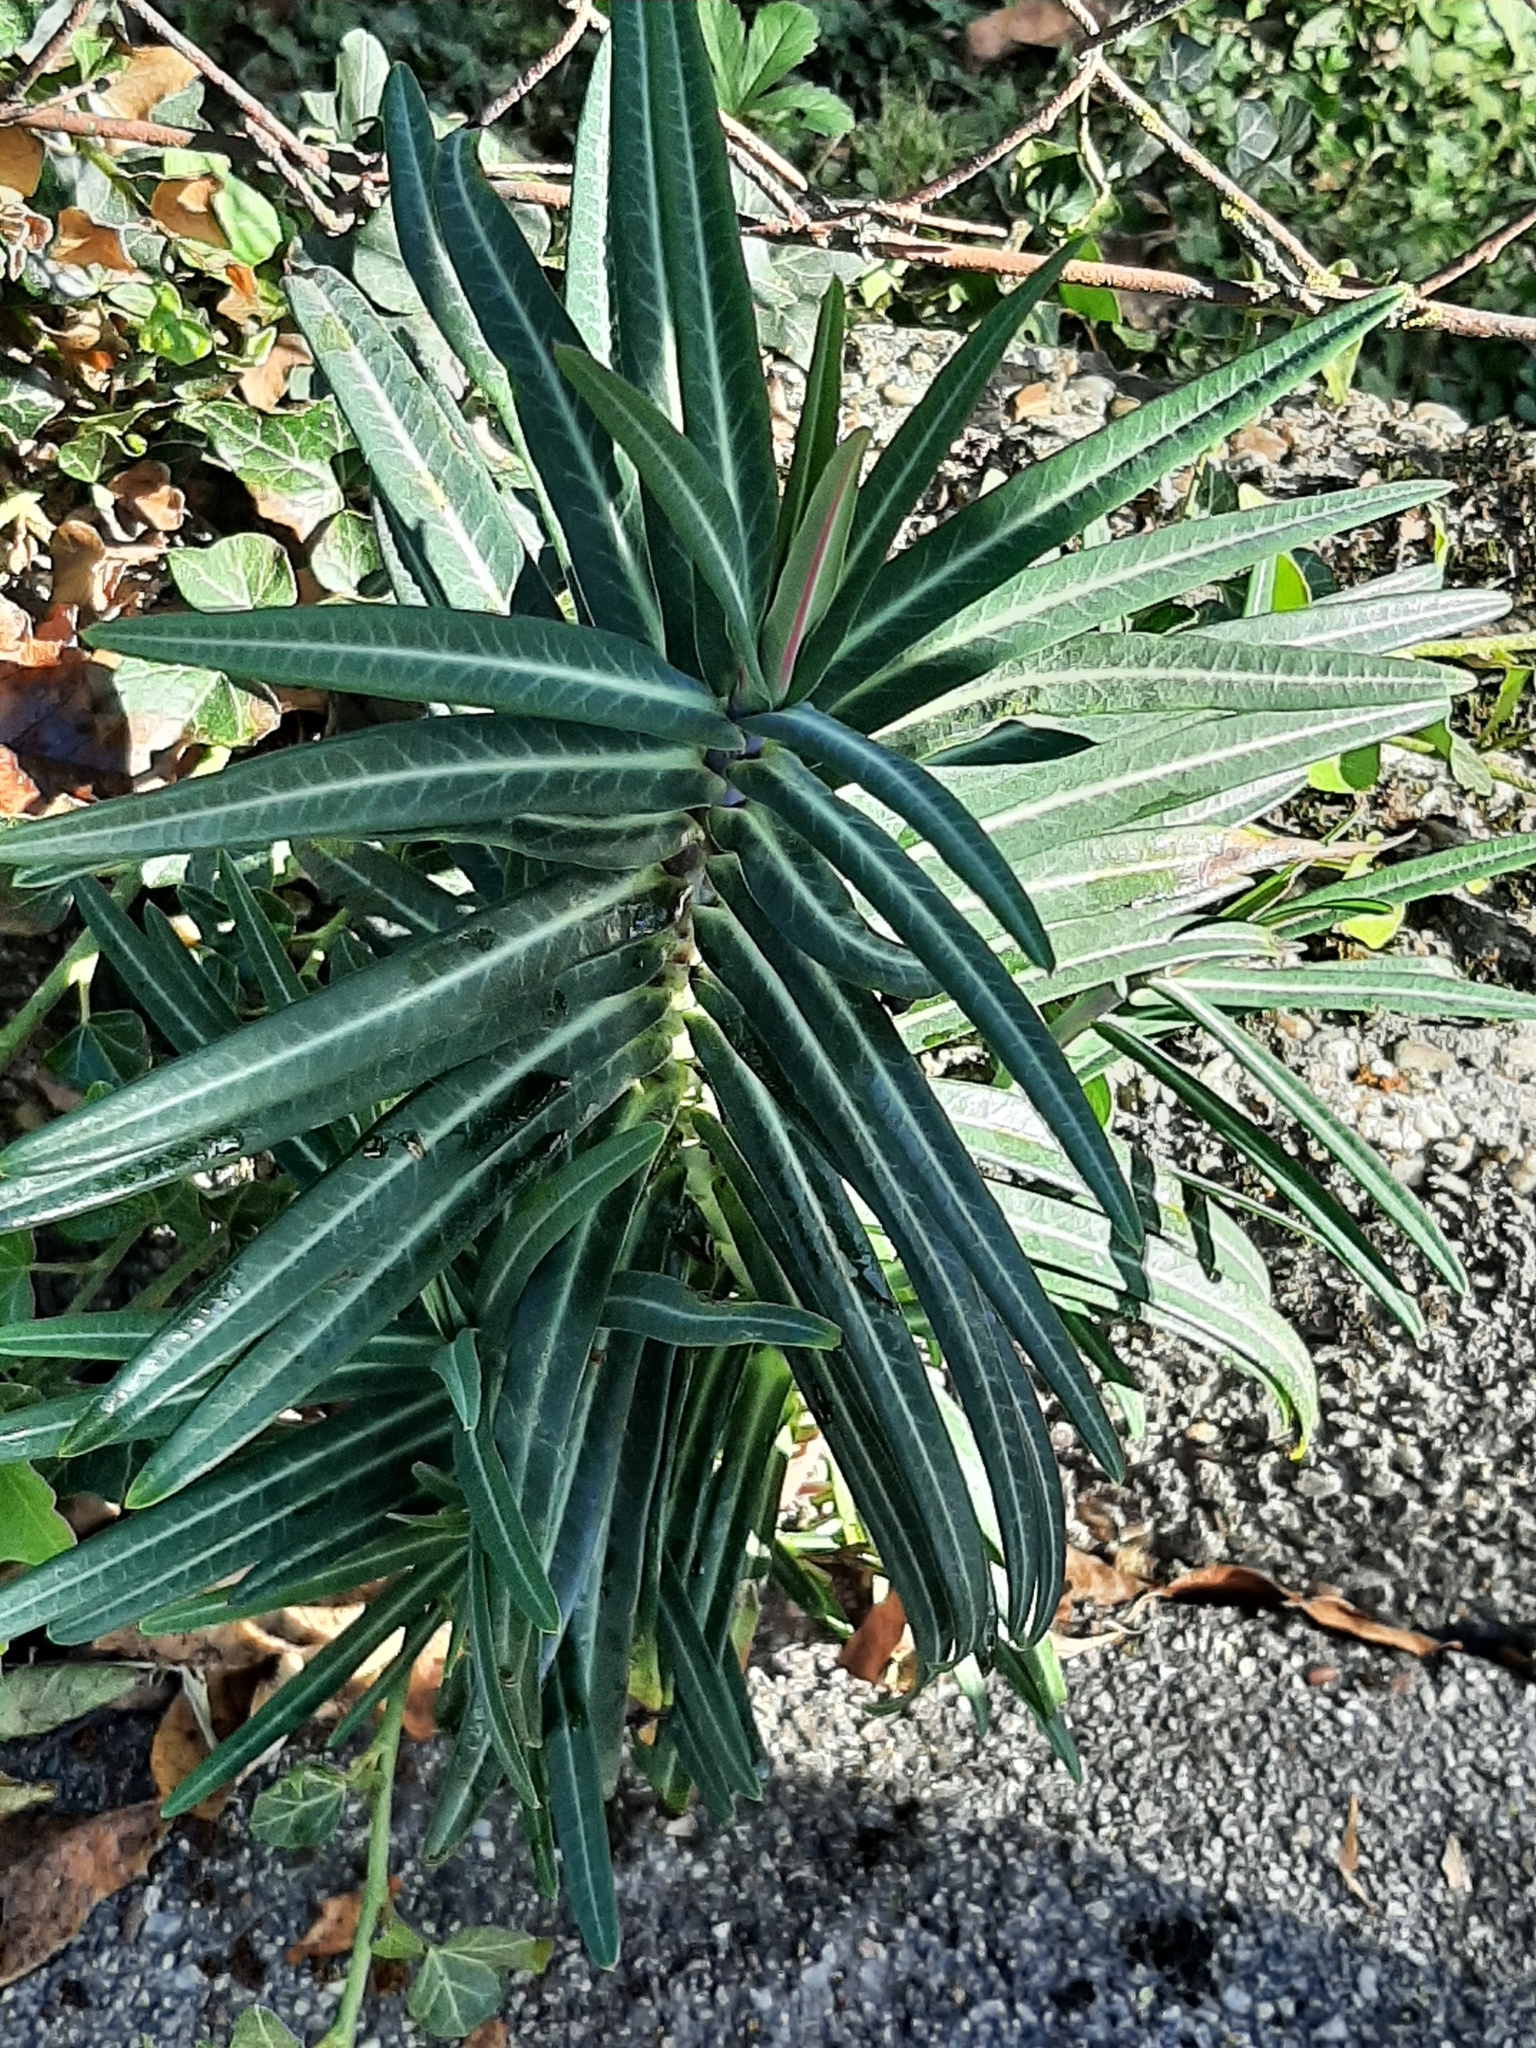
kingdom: Plantae
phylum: Tracheophyta
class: Magnoliopsida
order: Malpighiales
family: Euphorbiaceae
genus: Euphorbia
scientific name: Euphorbia lathyris
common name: Caper spurge
